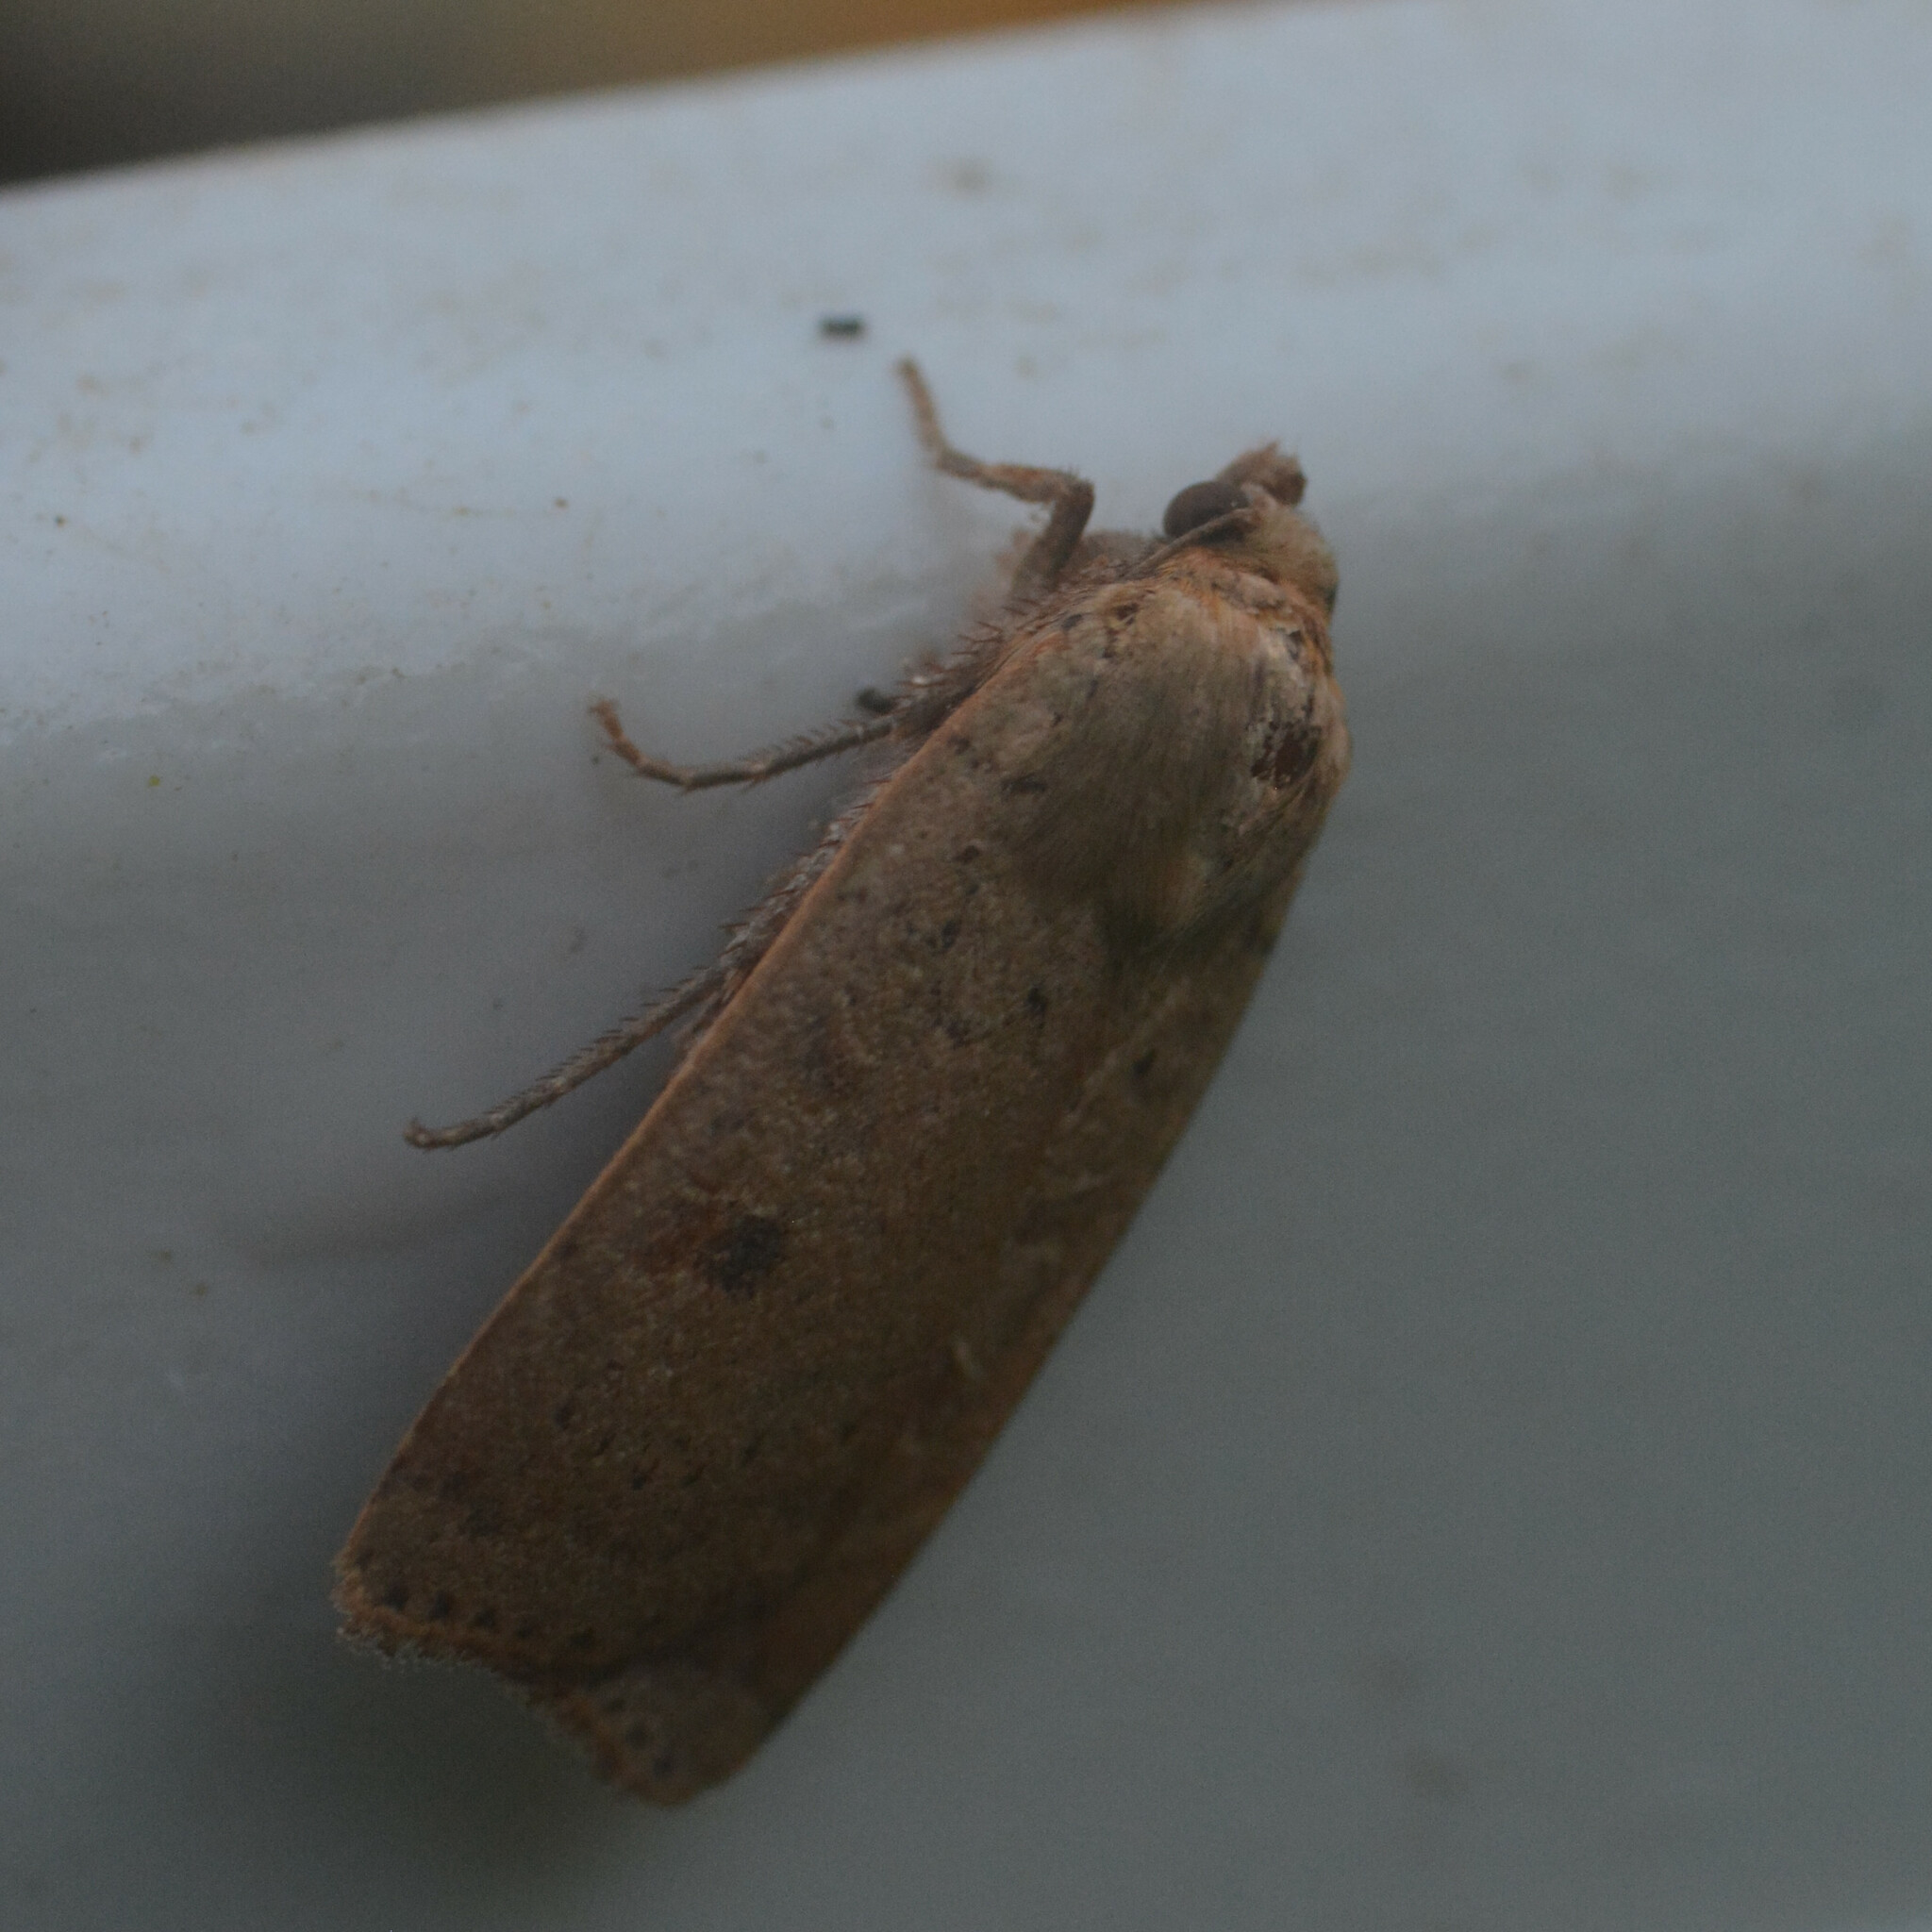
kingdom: Animalia
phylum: Arthropoda
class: Insecta
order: Lepidoptera
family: Noctuidae
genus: Noctua
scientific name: Noctua comes
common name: Lesser yellow underwing
